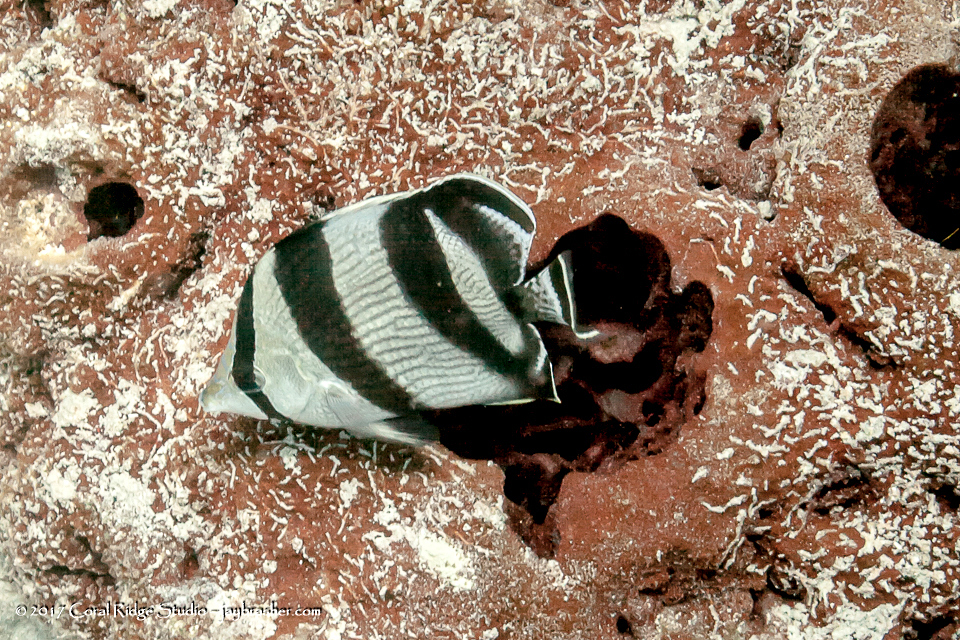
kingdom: Animalia
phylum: Chordata
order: Perciformes
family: Chaetodontidae
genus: Chaetodon
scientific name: Chaetodon striatus
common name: Banded butterflyfish
